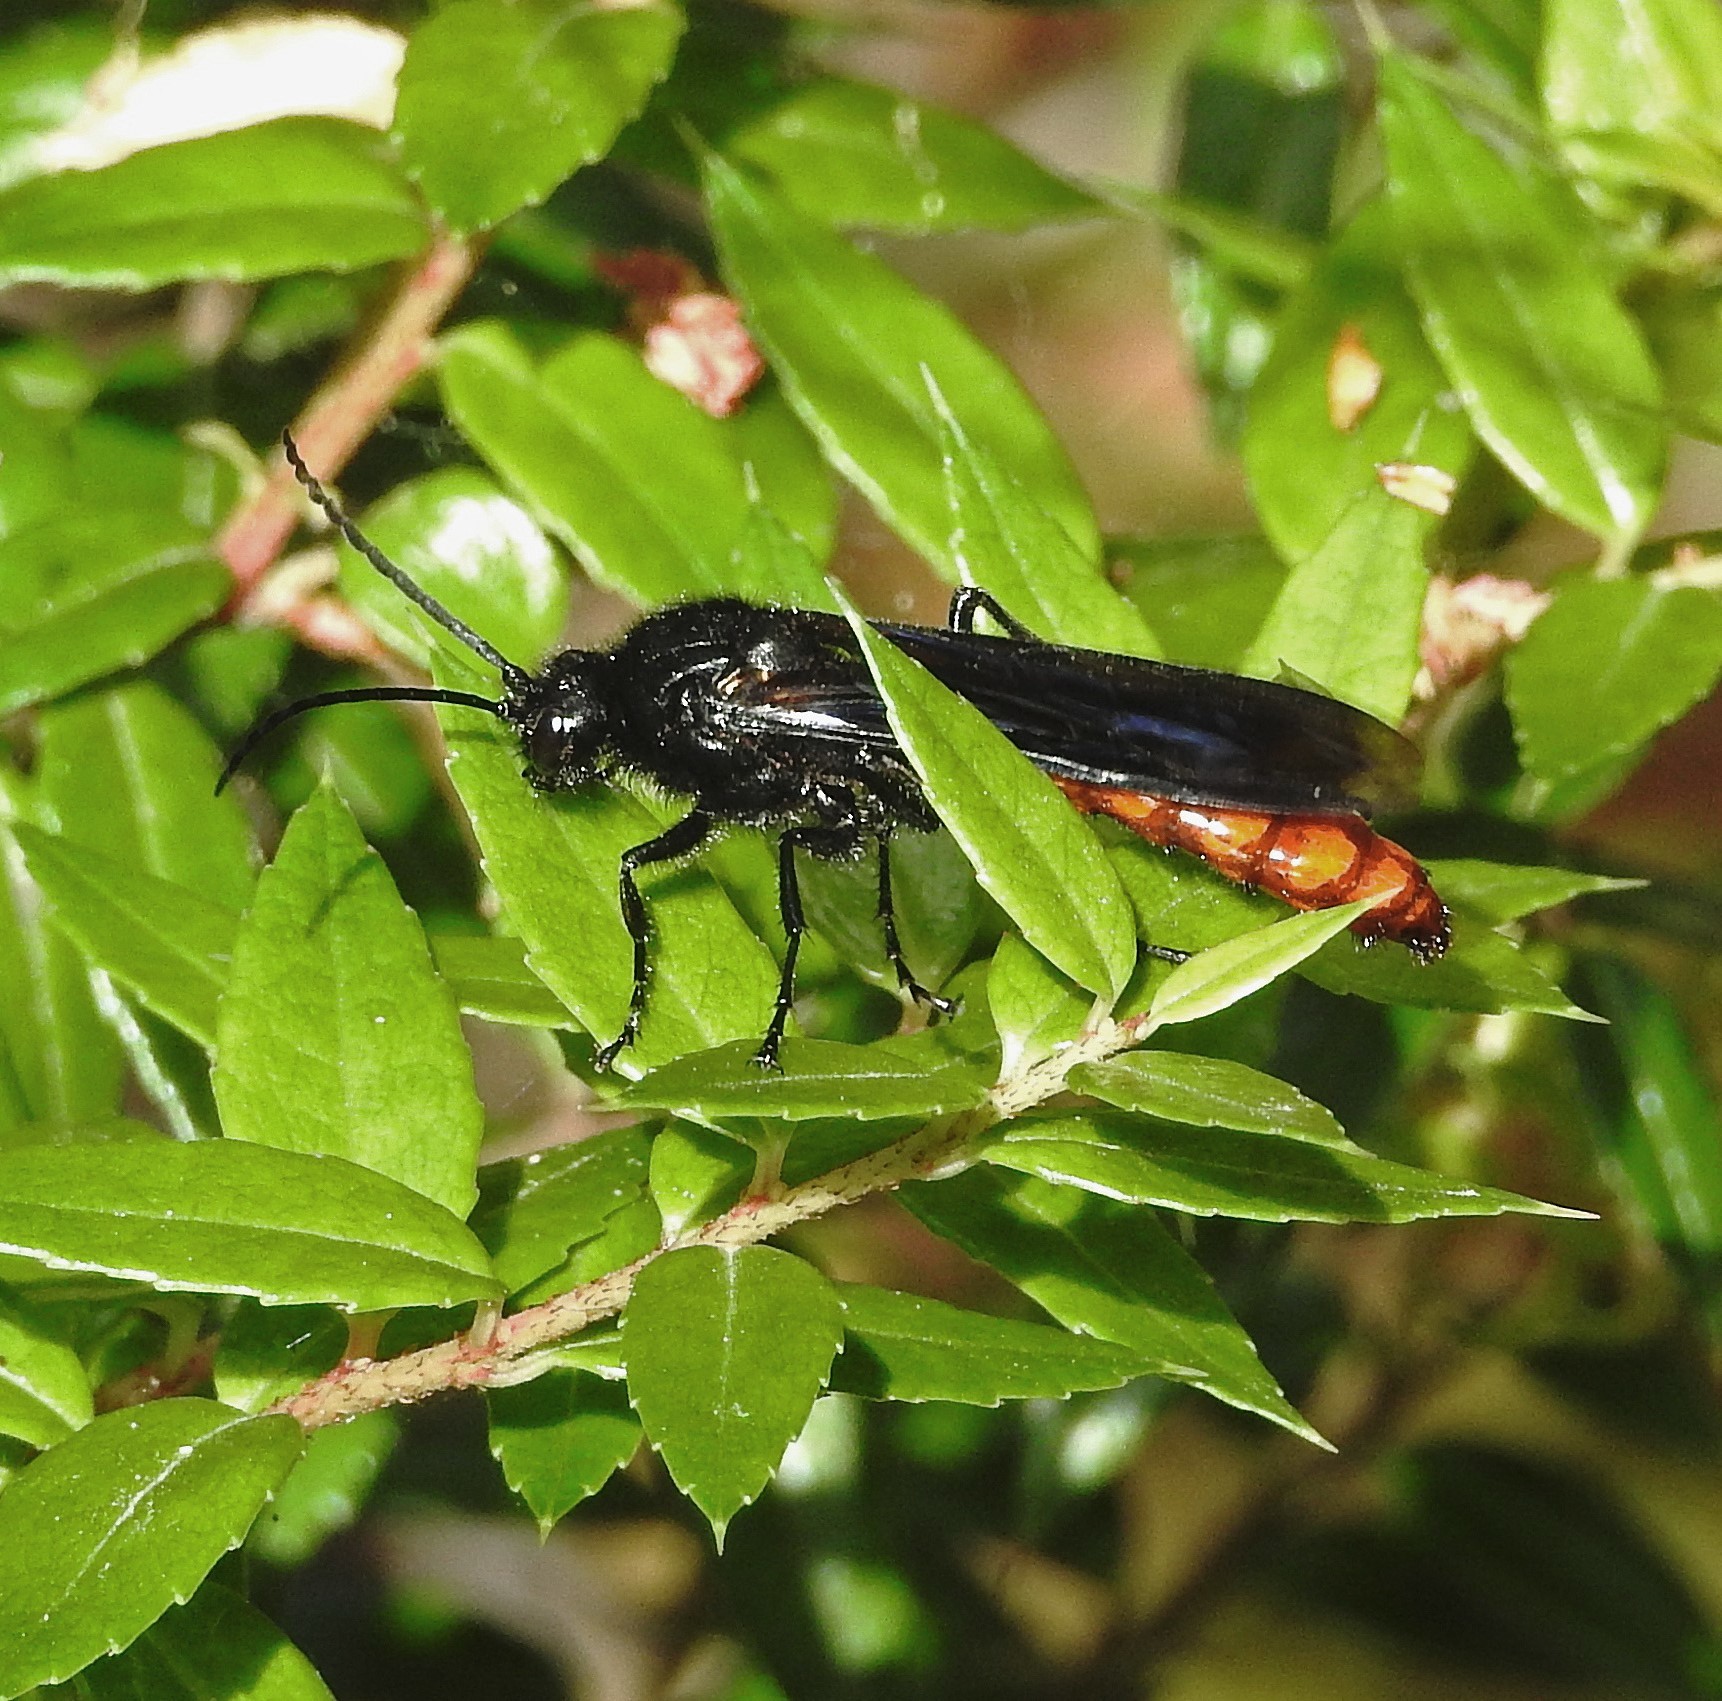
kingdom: Animalia
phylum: Arthropoda
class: Insecta
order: Hymenoptera
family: Tiphiidae
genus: Elaphroptera
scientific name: Elaphroptera
